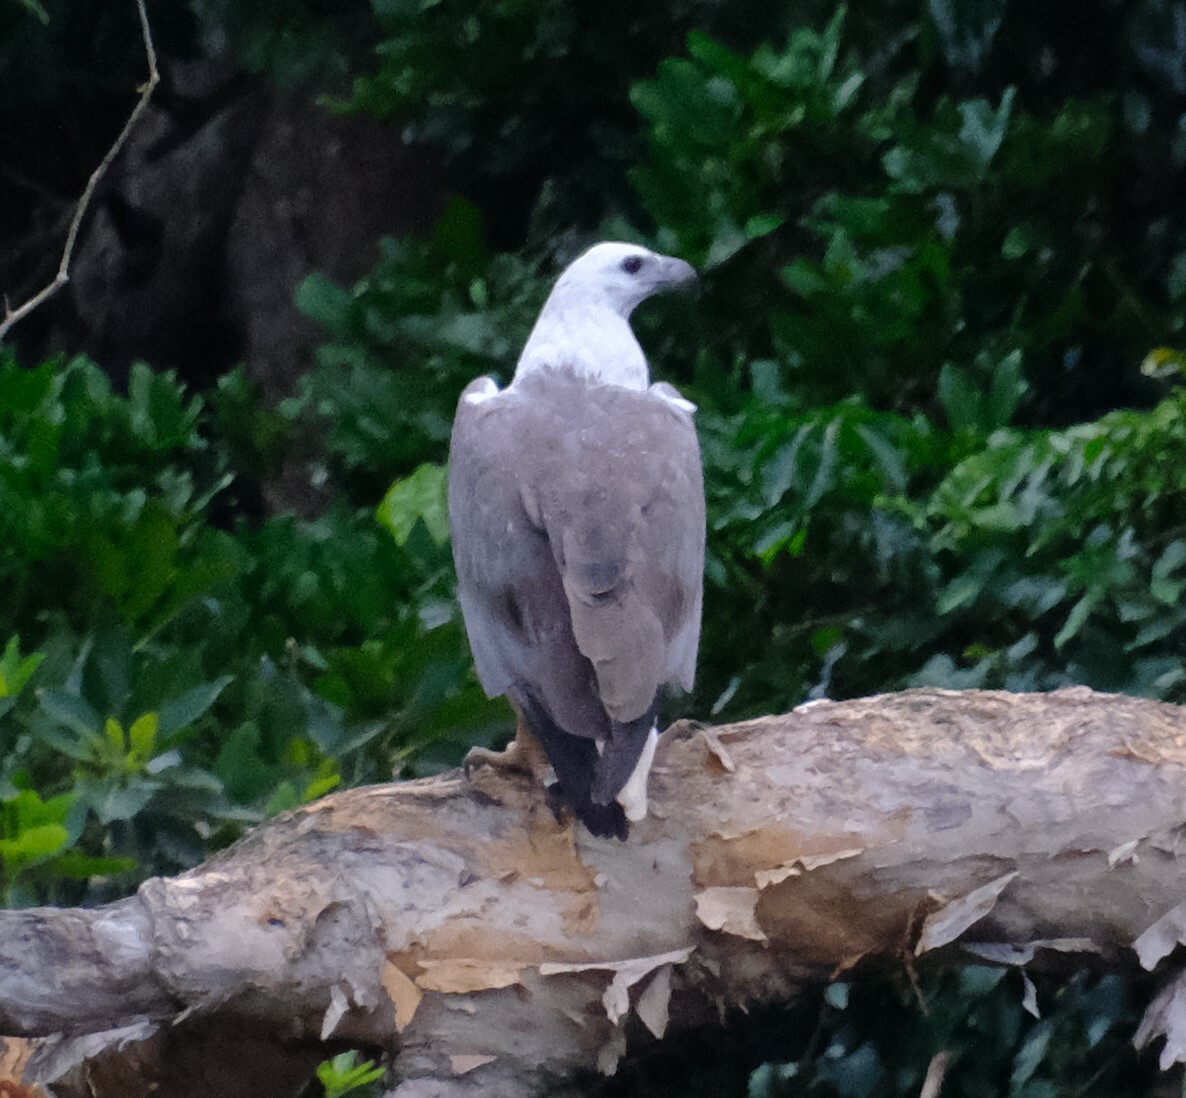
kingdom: Animalia
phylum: Chordata
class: Aves
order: Accipitriformes
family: Accipitridae
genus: Haliaeetus
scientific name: Haliaeetus leucogaster
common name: White-bellied sea eagle
